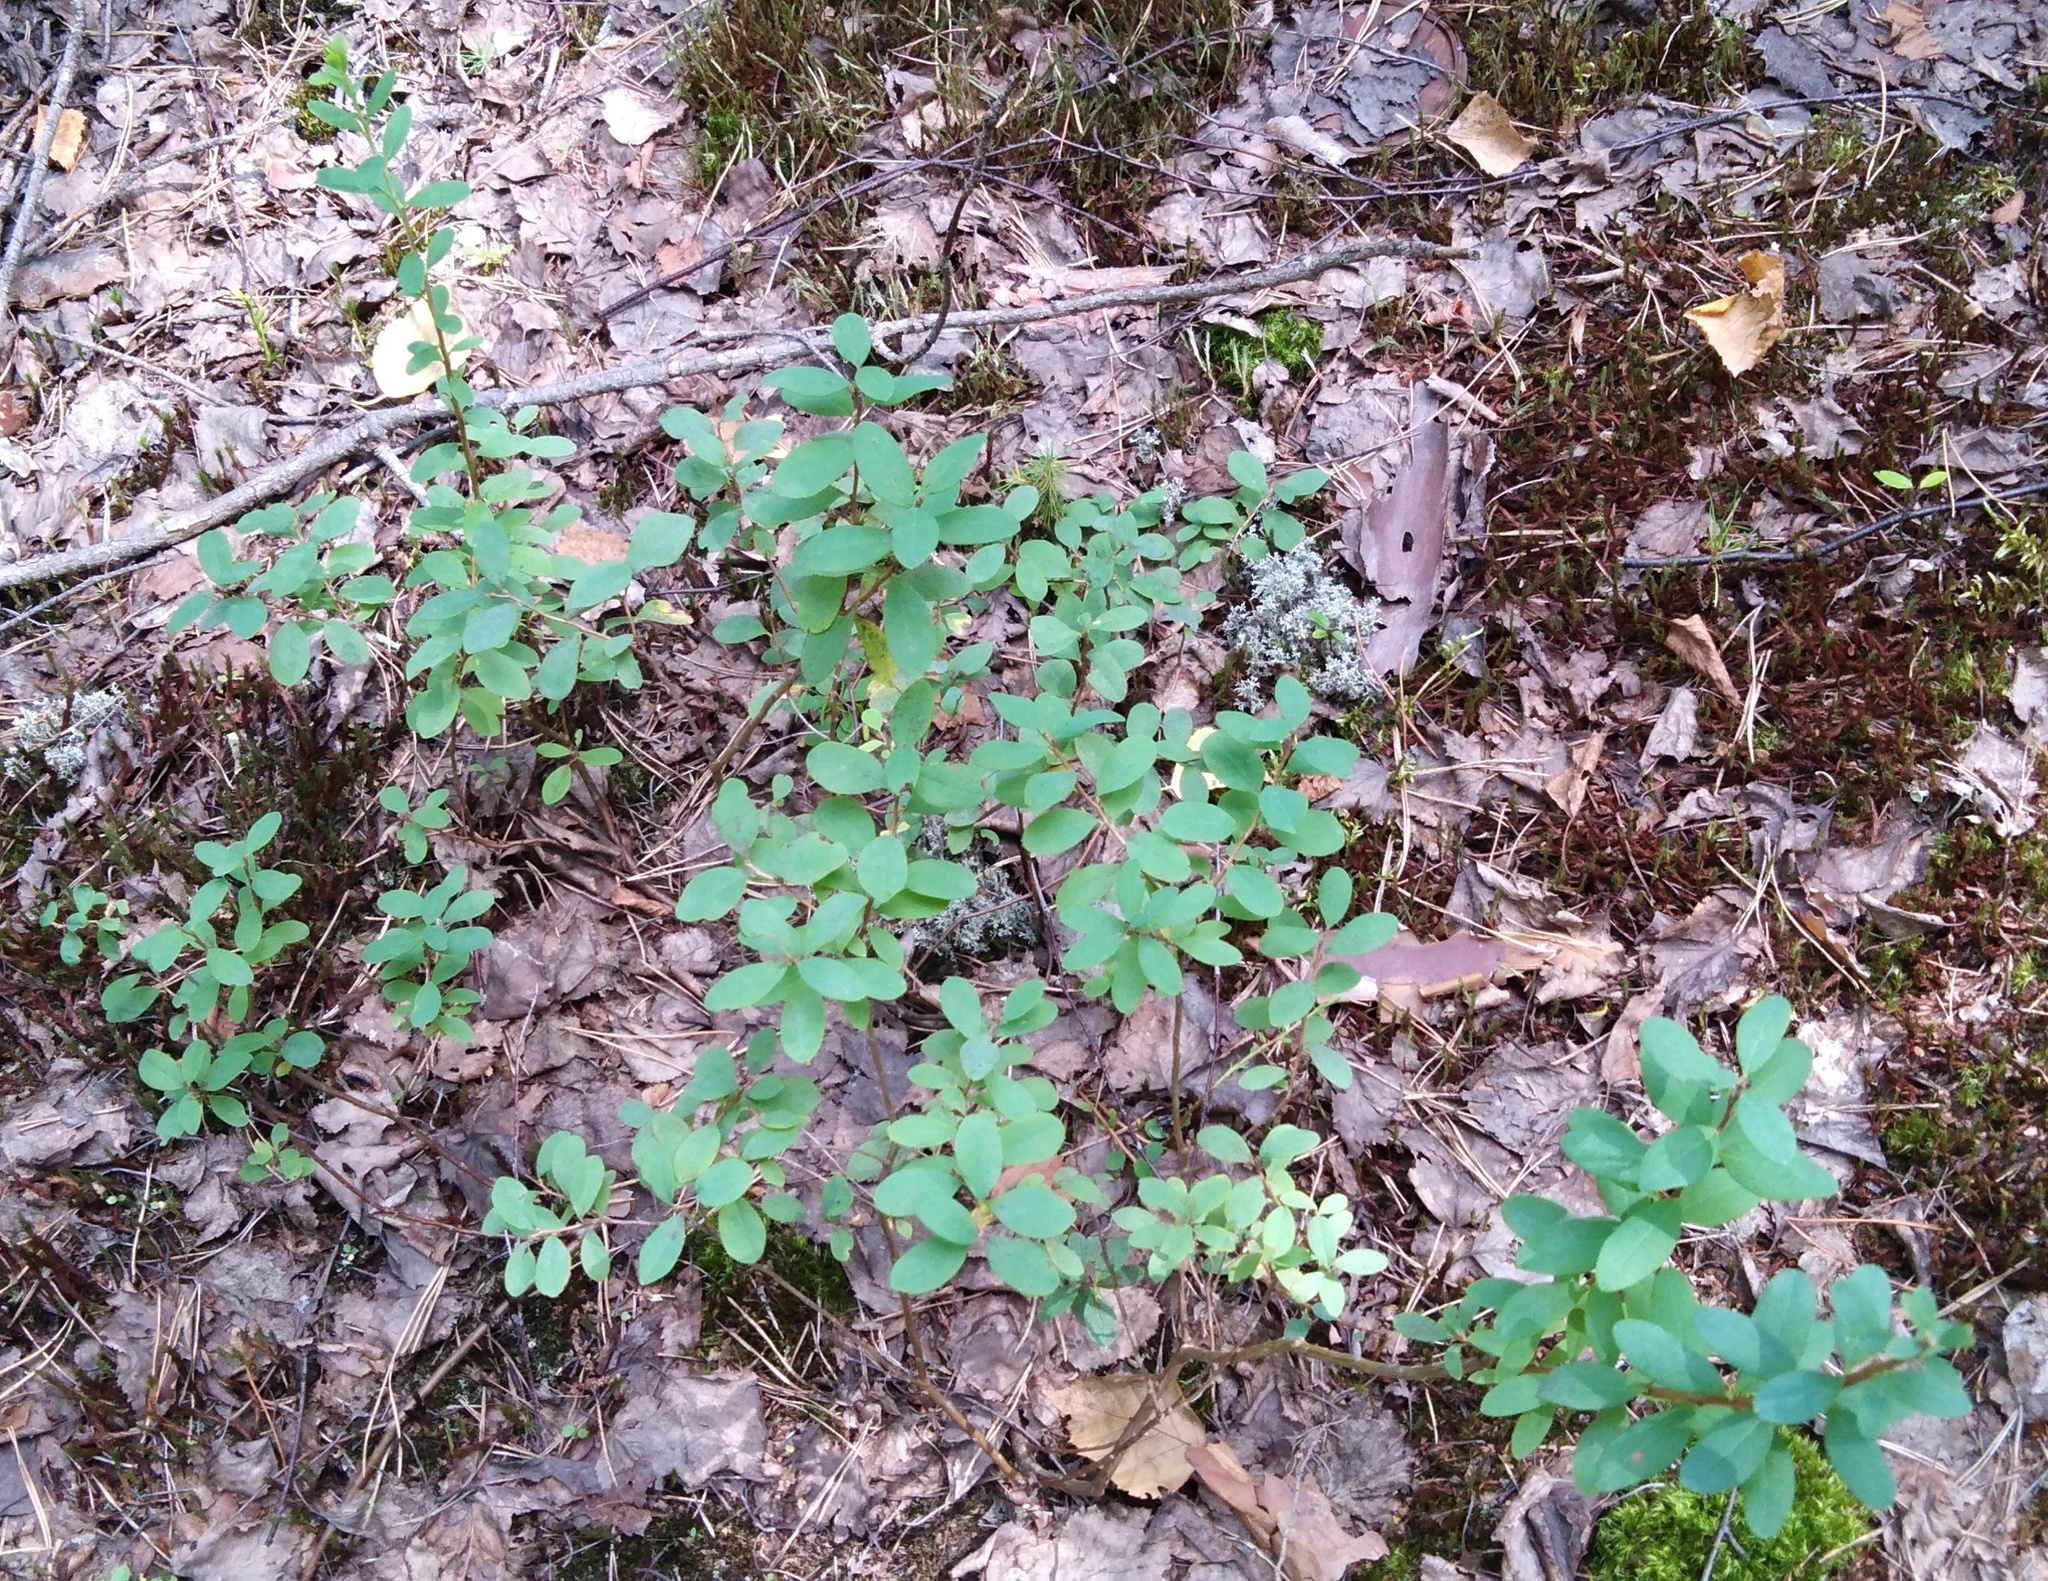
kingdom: Plantae
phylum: Tracheophyta
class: Magnoliopsida
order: Ericales
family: Ericaceae
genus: Vaccinium
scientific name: Vaccinium uliginosum
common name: Bog bilberry
